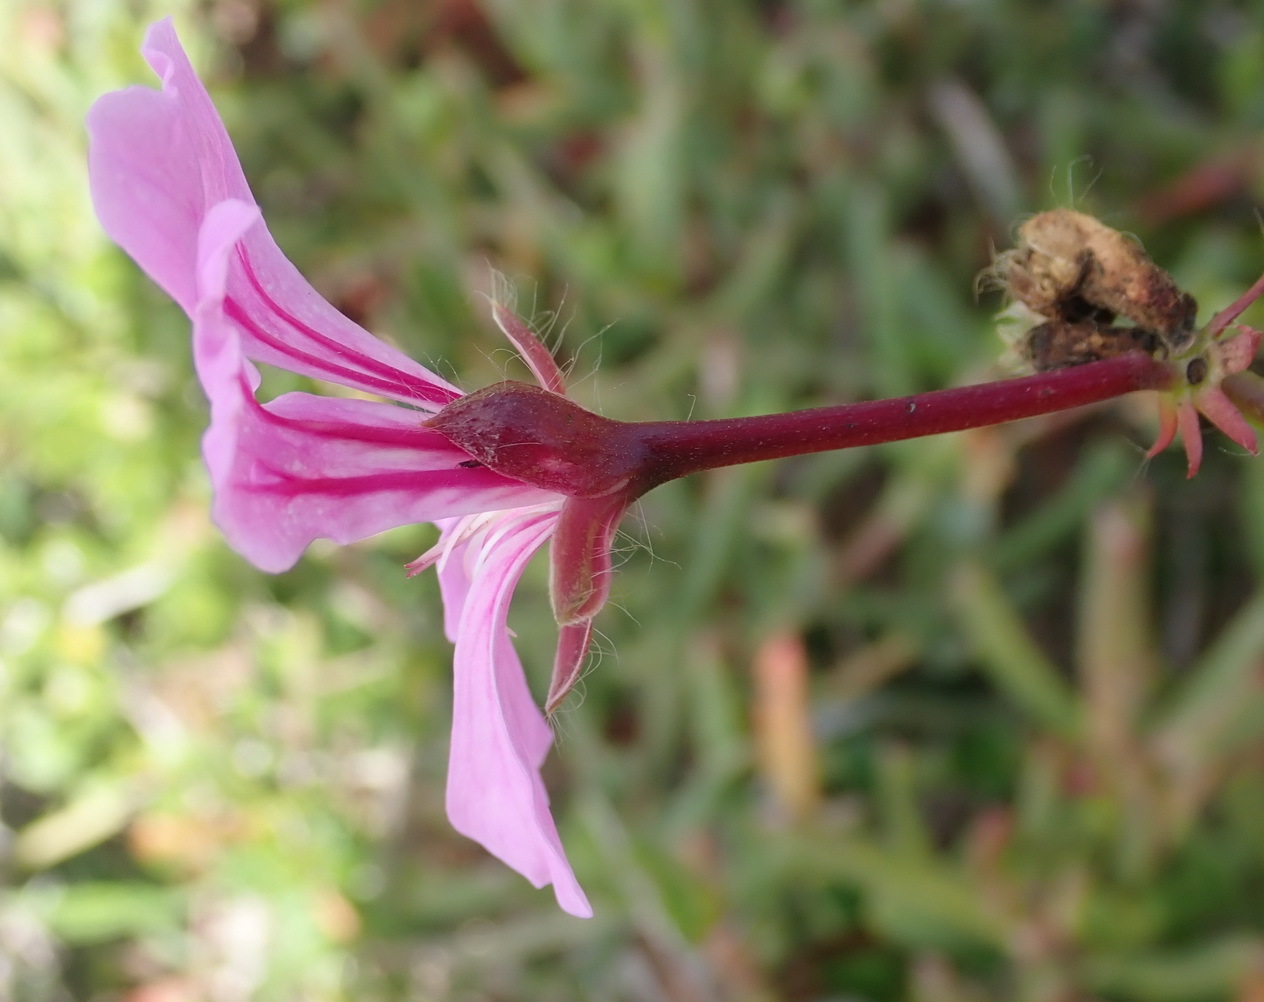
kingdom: Plantae
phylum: Tracheophyta
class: Magnoliopsida
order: Geraniales
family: Geraniaceae
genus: Pelargonium
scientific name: Pelargonium peltatum
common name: Ivyleaf geranium
